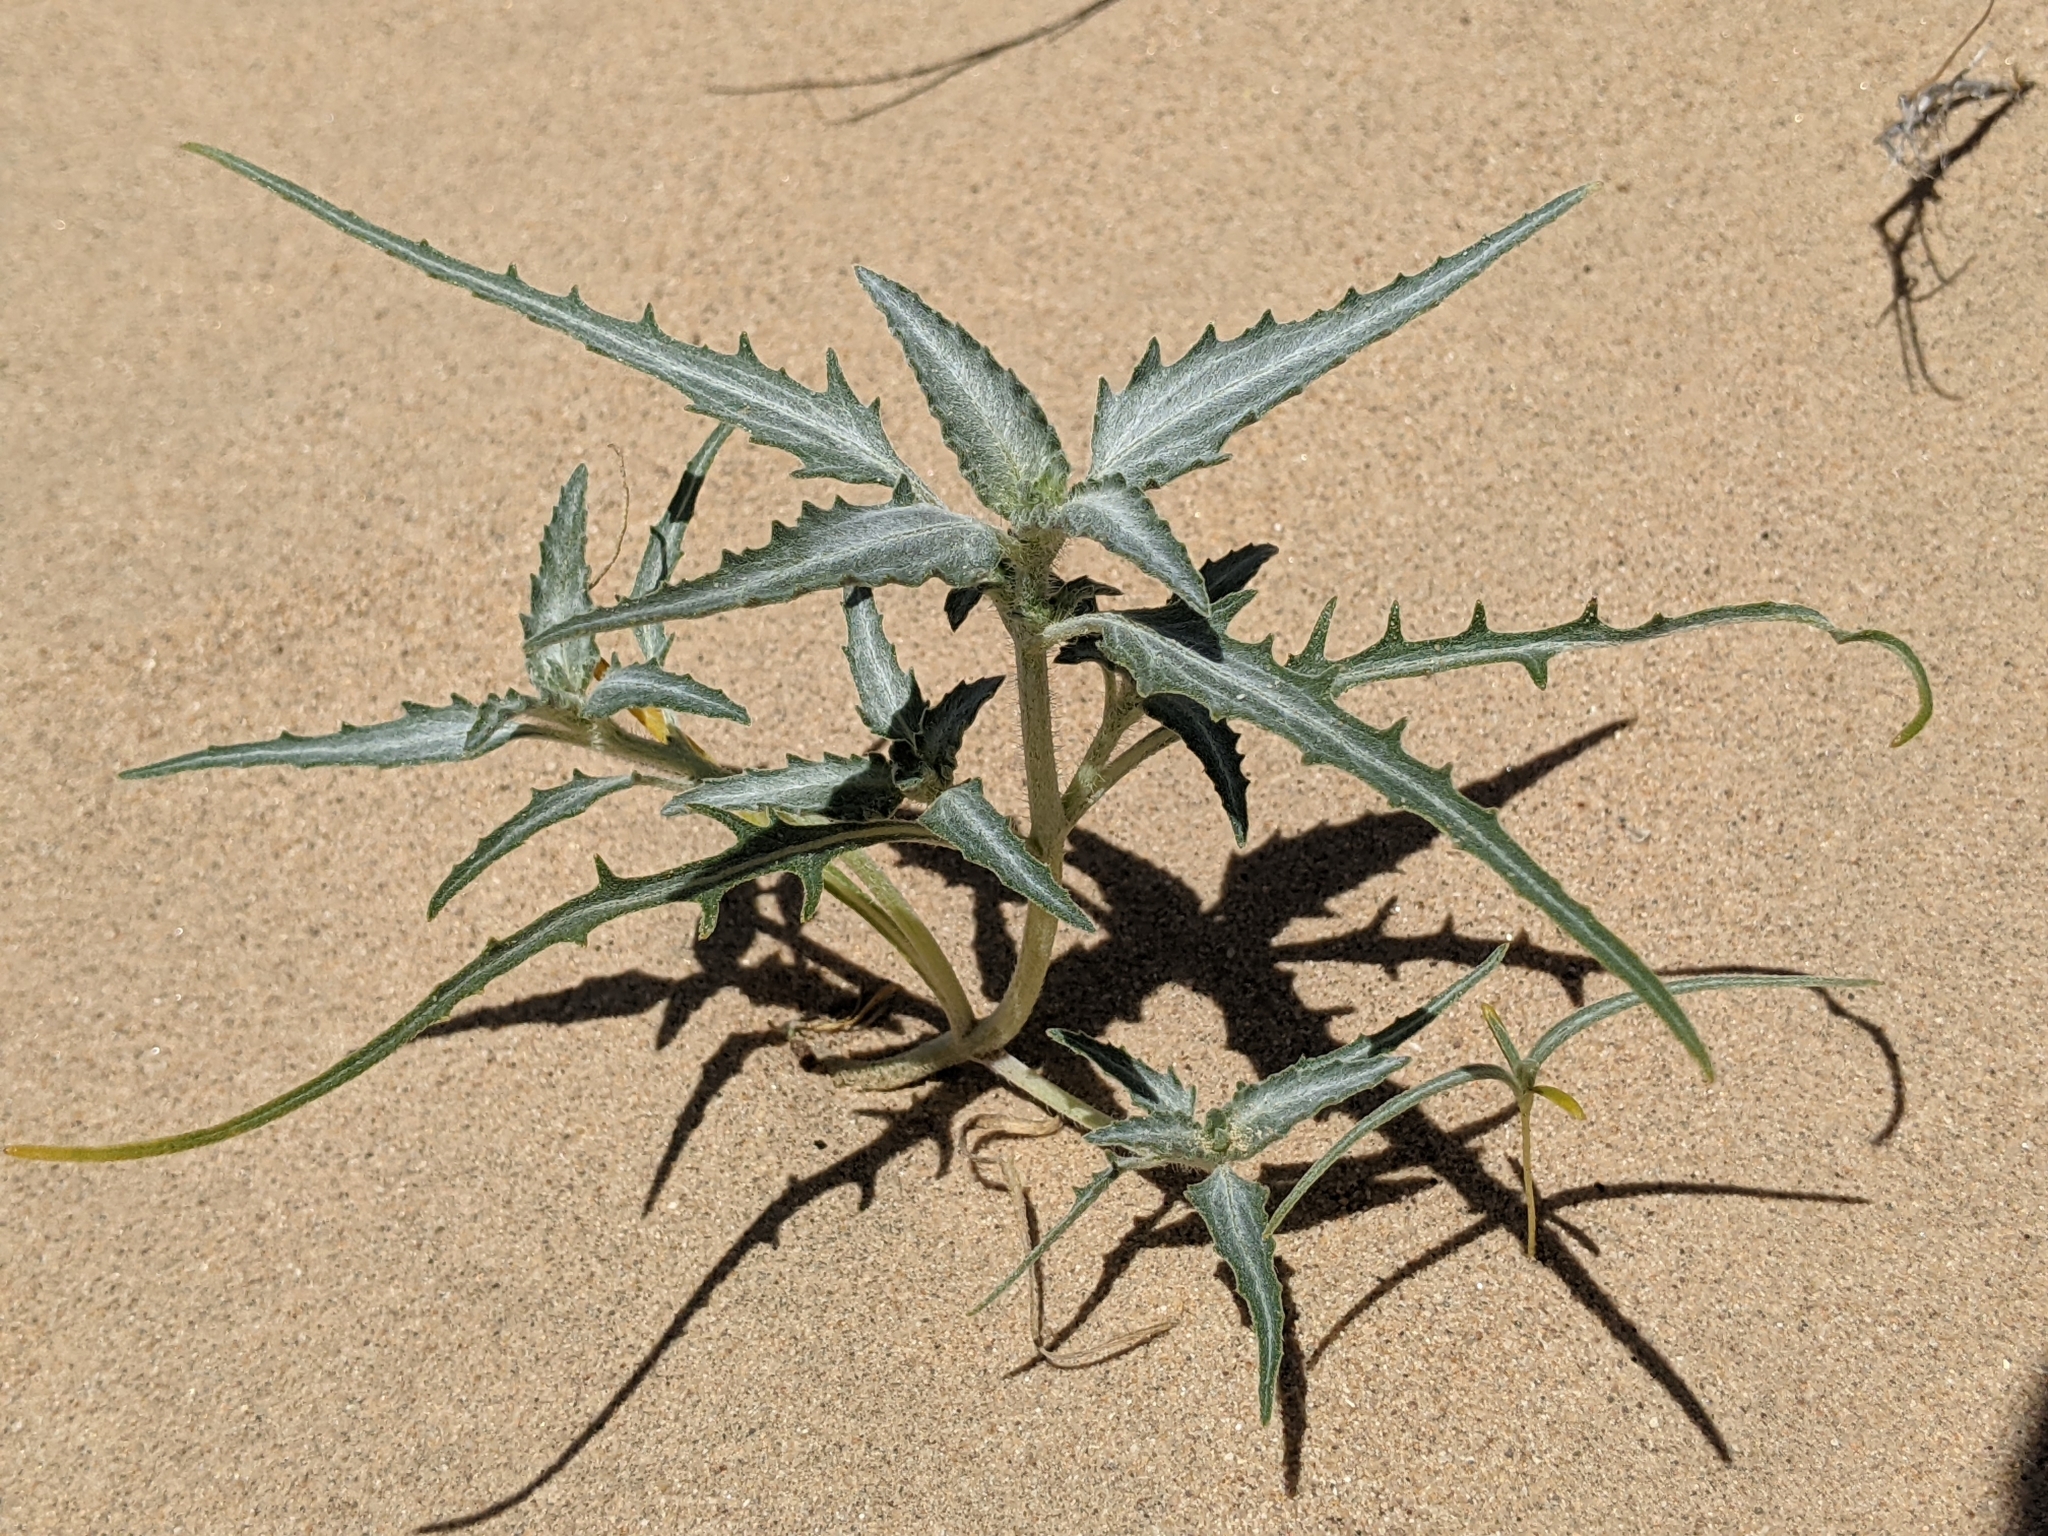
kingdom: Plantae
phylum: Tracheophyta
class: Magnoliopsida
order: Asterales
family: Asteraceae
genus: Dicoria
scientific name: Dicoria canescens
